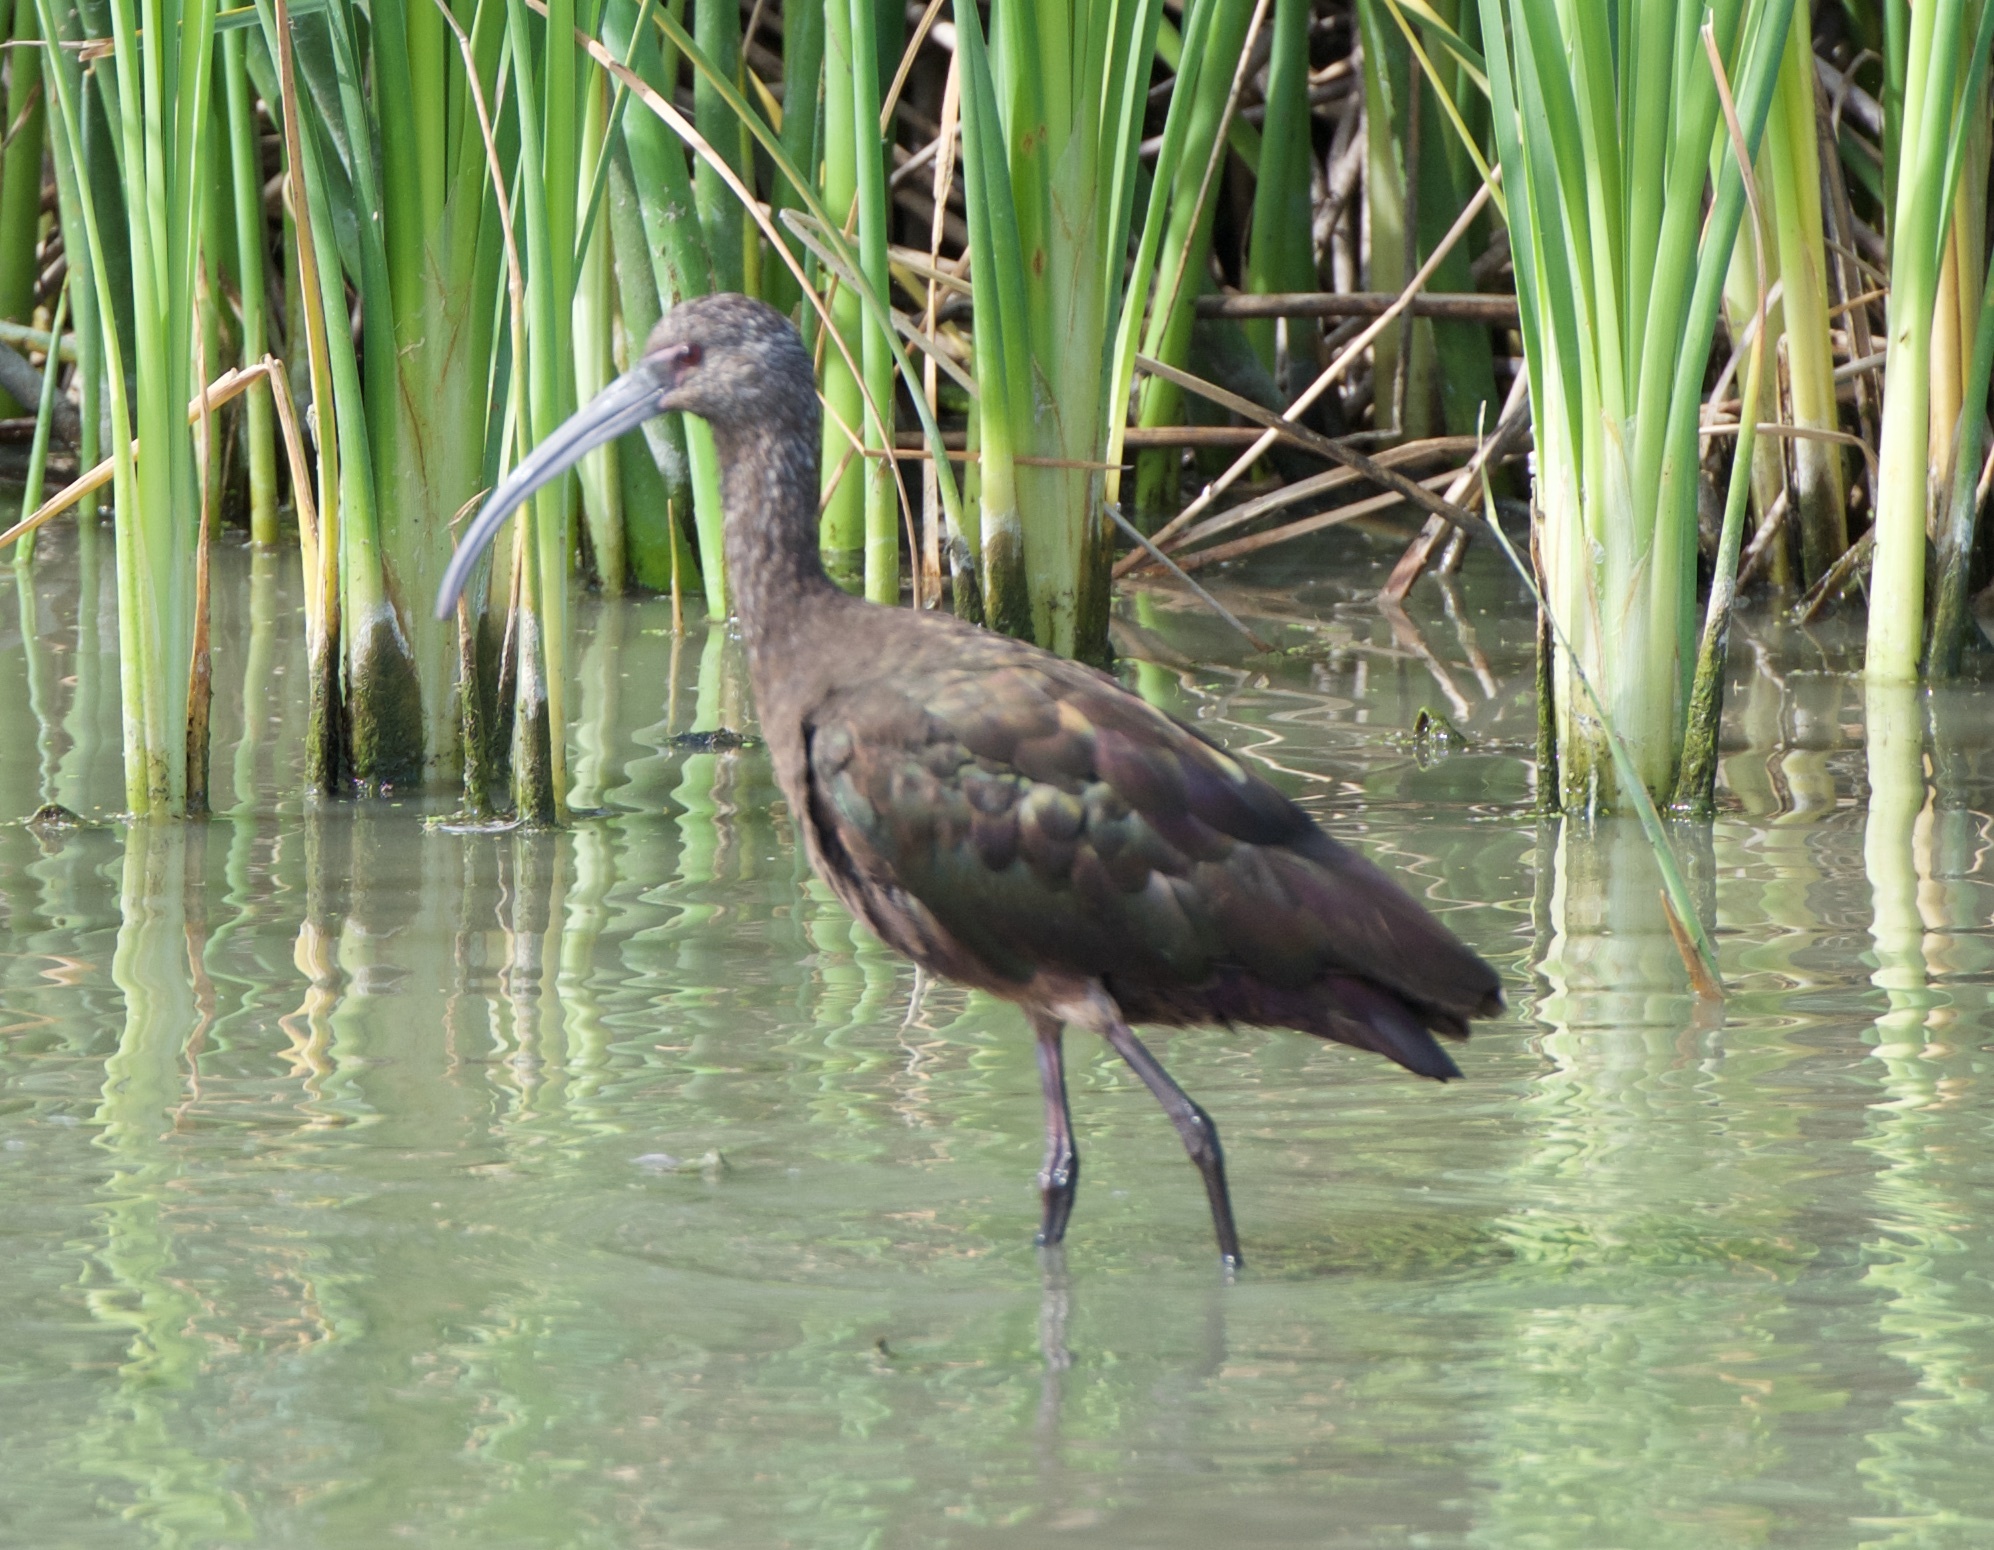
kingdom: Animalia
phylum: Chordata
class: Aves
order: Pelecaniformes
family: Threskiornithidae
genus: Plegadis
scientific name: Plegadis chihi
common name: White-faced ibis
